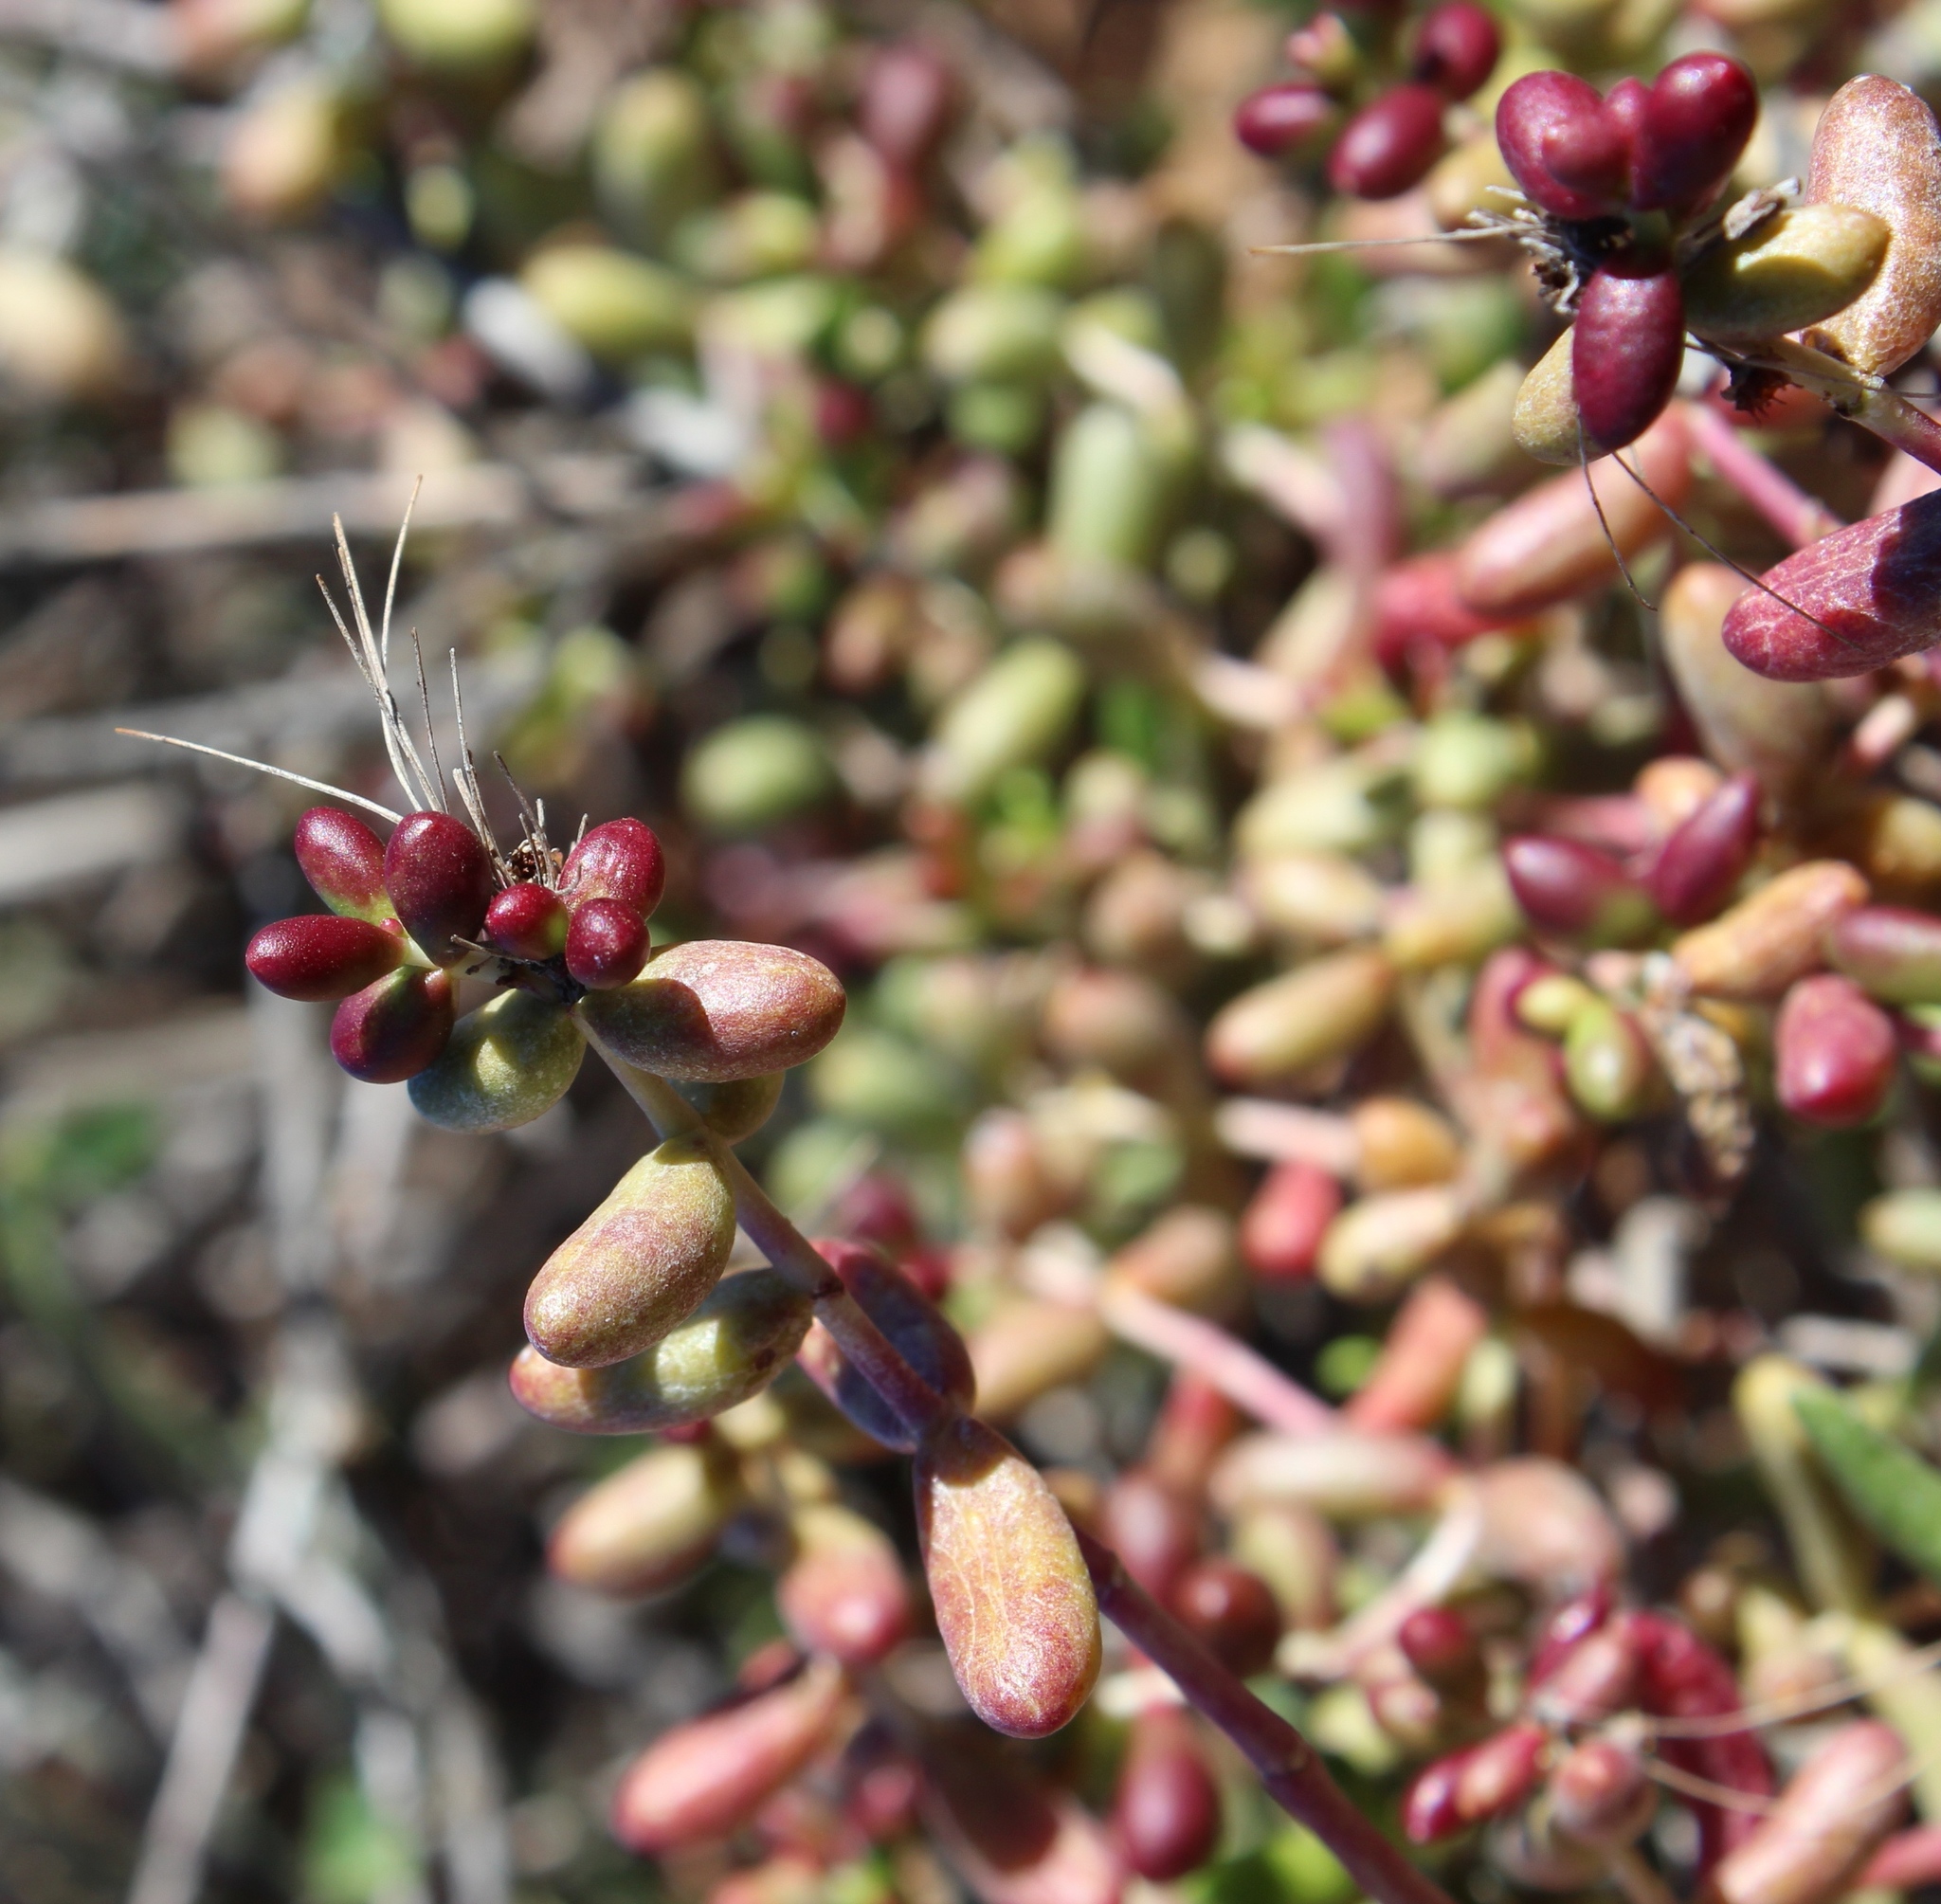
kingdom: Plantae
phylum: Tracheophyta
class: Magnoliopsida
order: Saxifragales
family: Crassulaceae
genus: Crassula
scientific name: Crassula expansa
